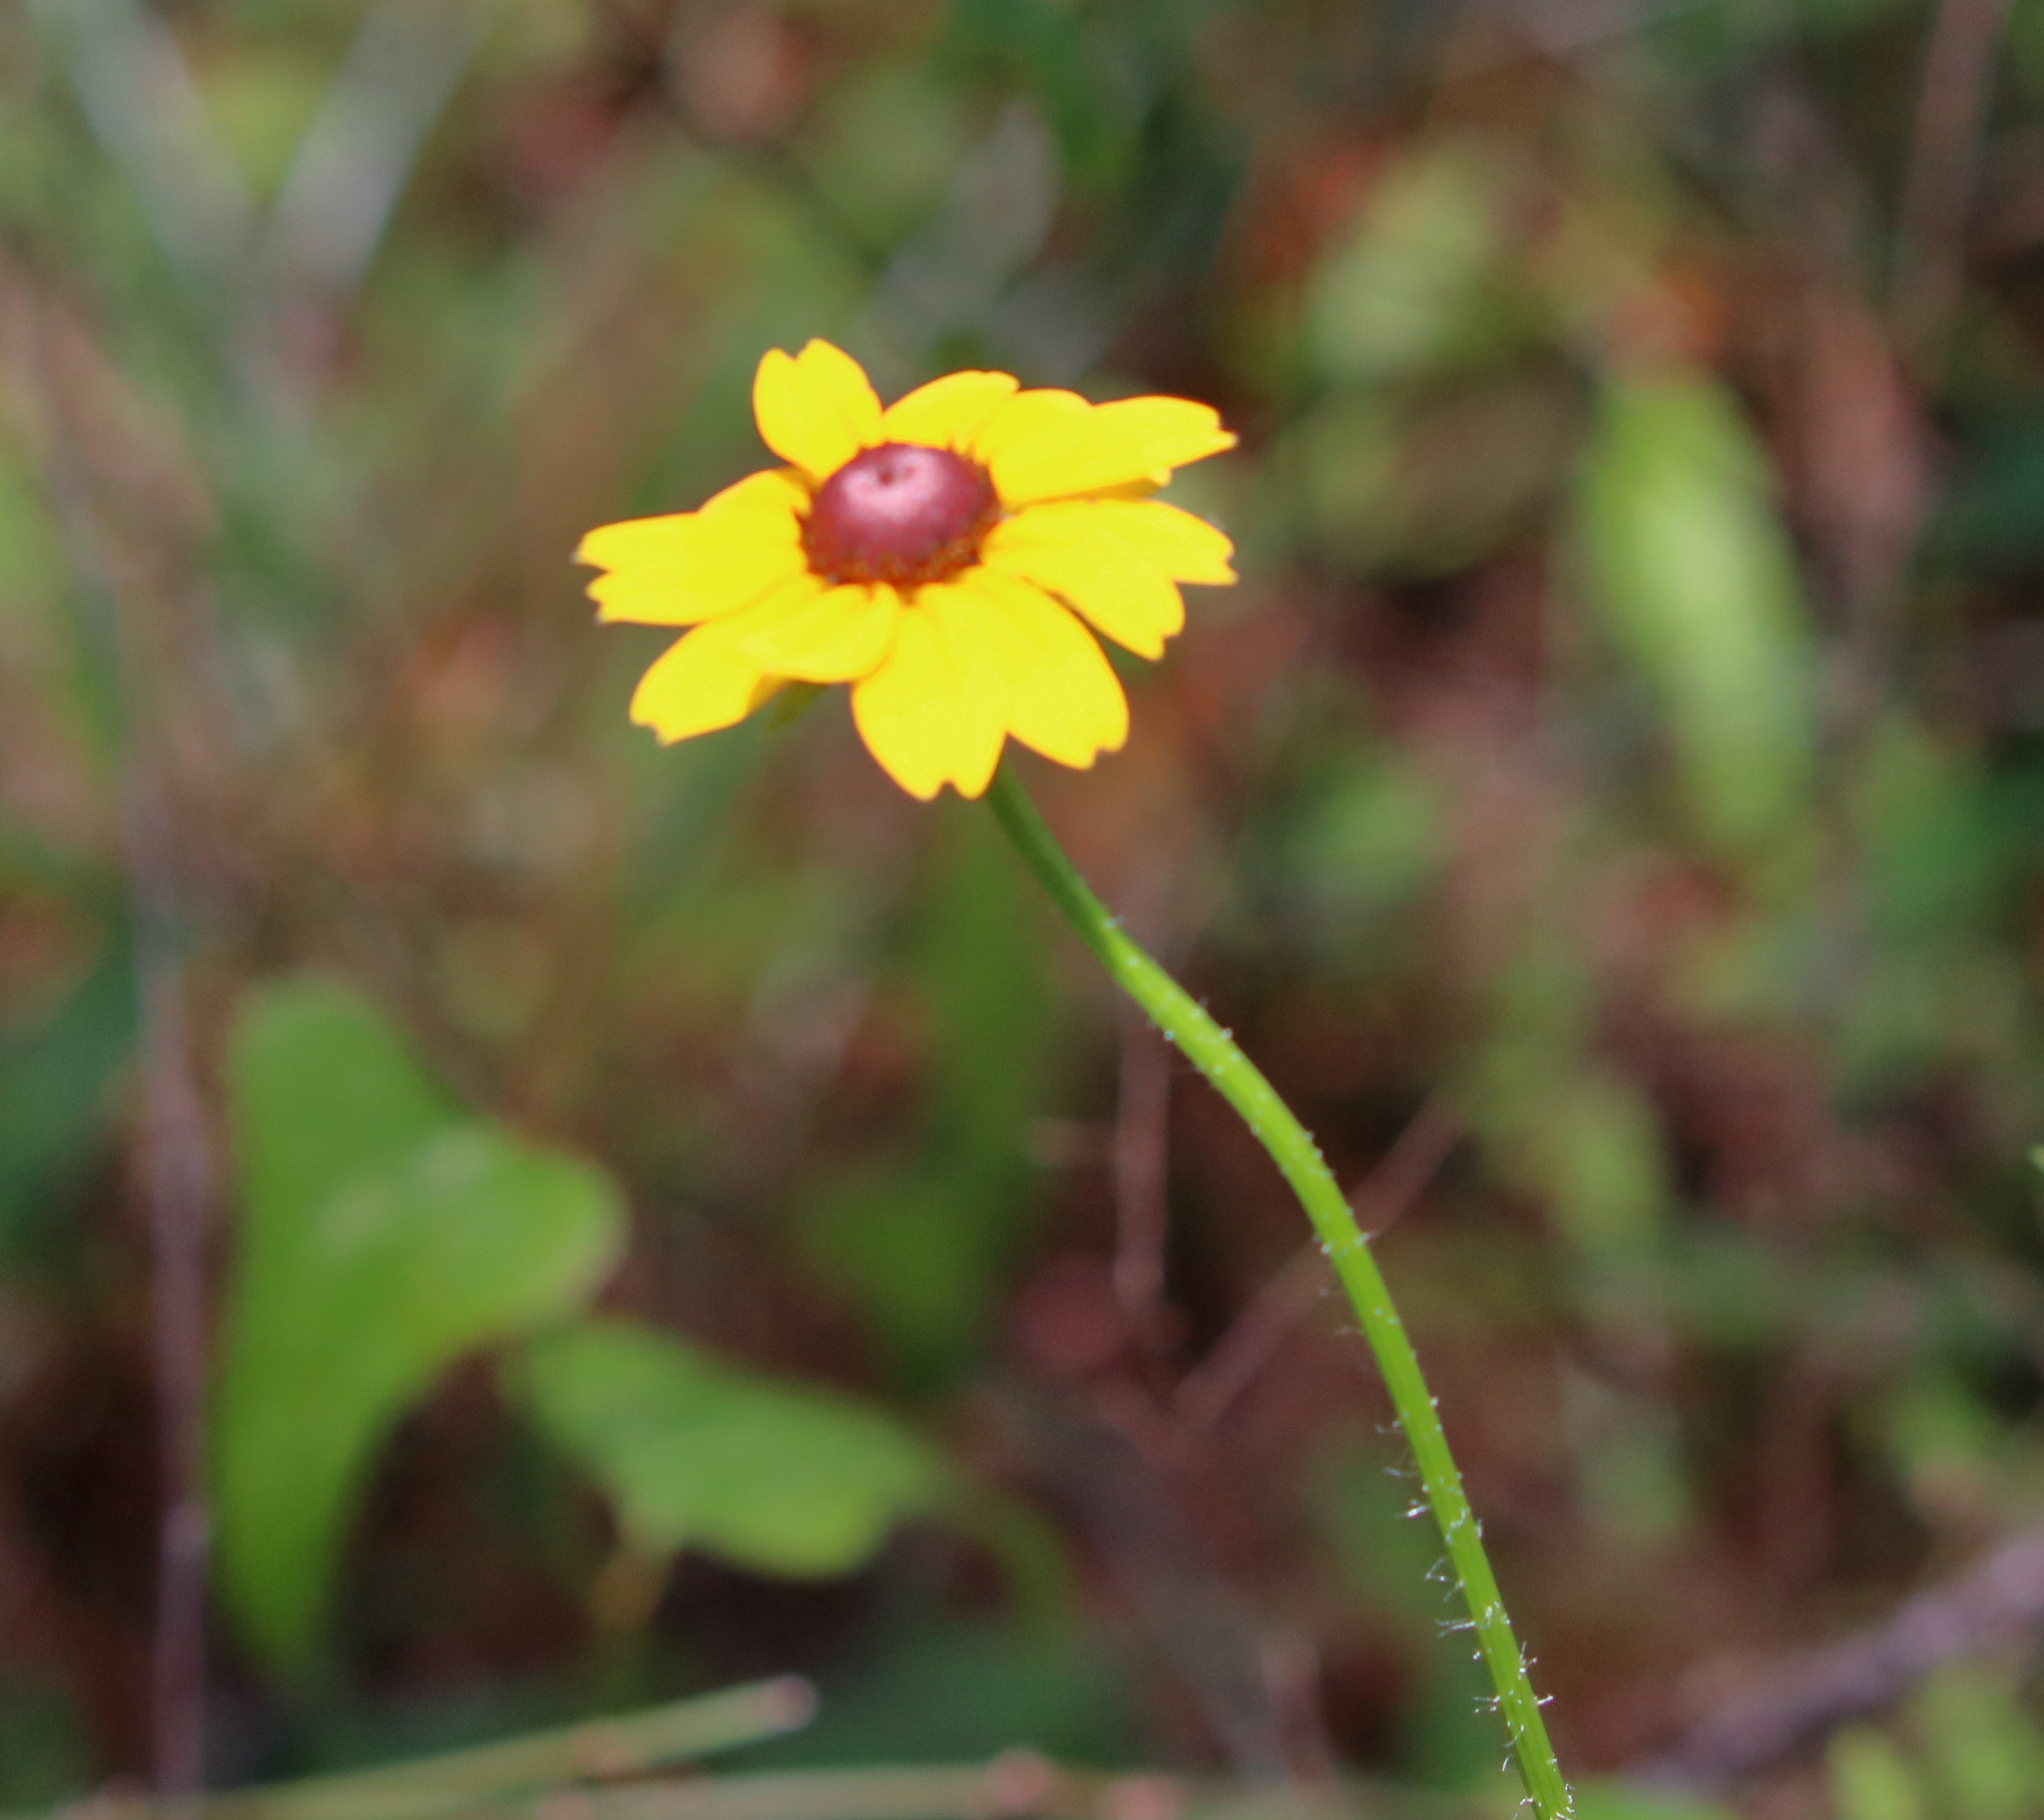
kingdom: Plantae
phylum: Tracheophyta
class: Magnoliopsida
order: Asterales
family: Asteraceae
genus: Rudbeckia
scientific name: Rudbeckia hirta
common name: Black-eyed-susan
